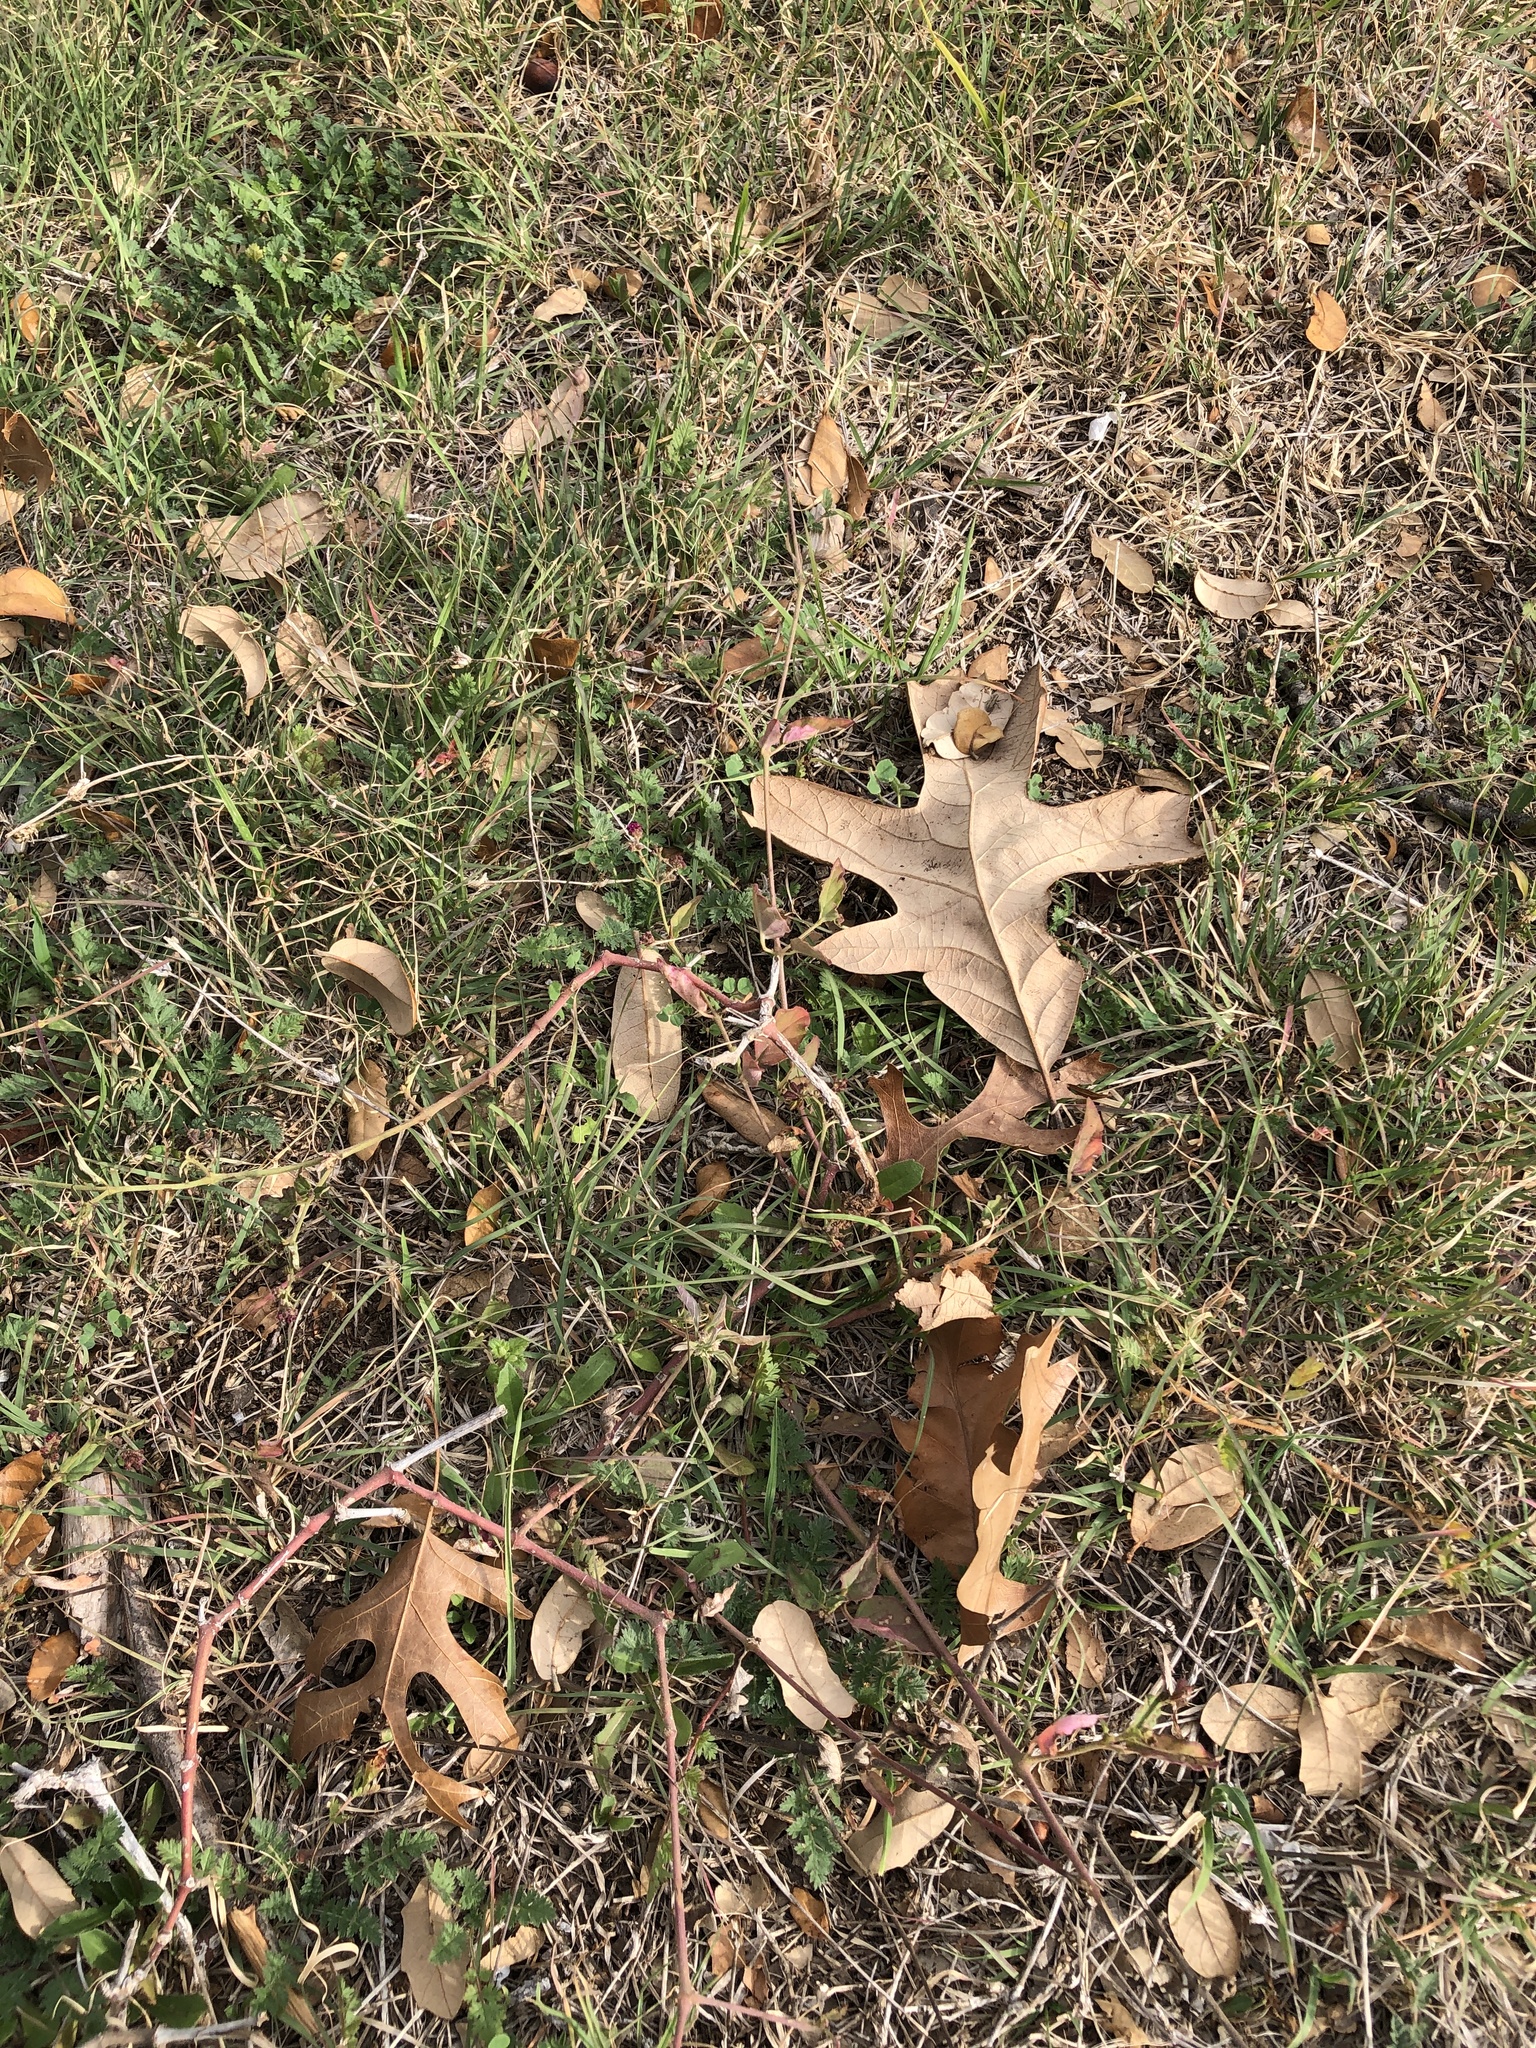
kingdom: Plantae
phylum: Tracheophyta
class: Magnoliopsida
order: Caryophyllales
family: Nyctaginaceae
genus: Boerhavia
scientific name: Boerhavia coccinea
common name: Scarlet spiderling
